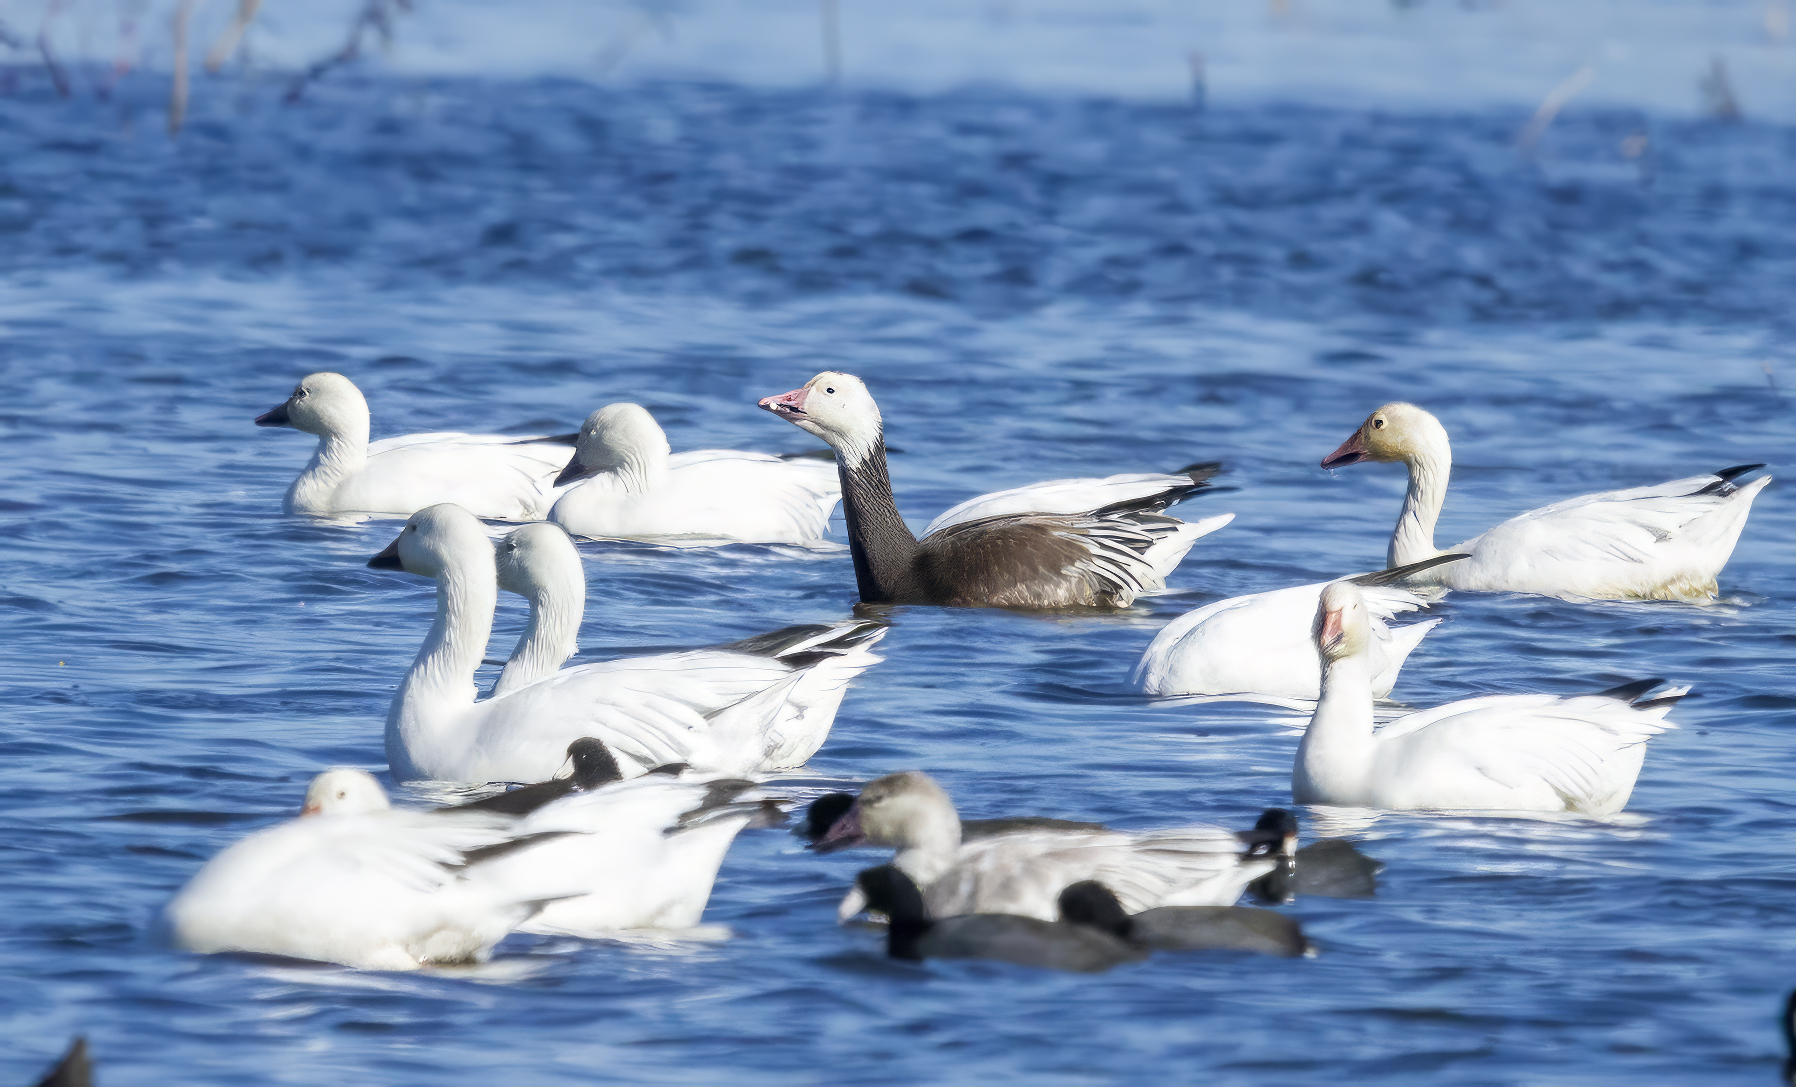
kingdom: Animalia
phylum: Chordata
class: Aves
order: Anseriformes
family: Anatidae
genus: Anser
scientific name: Anser caerulescens
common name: Snow goose
